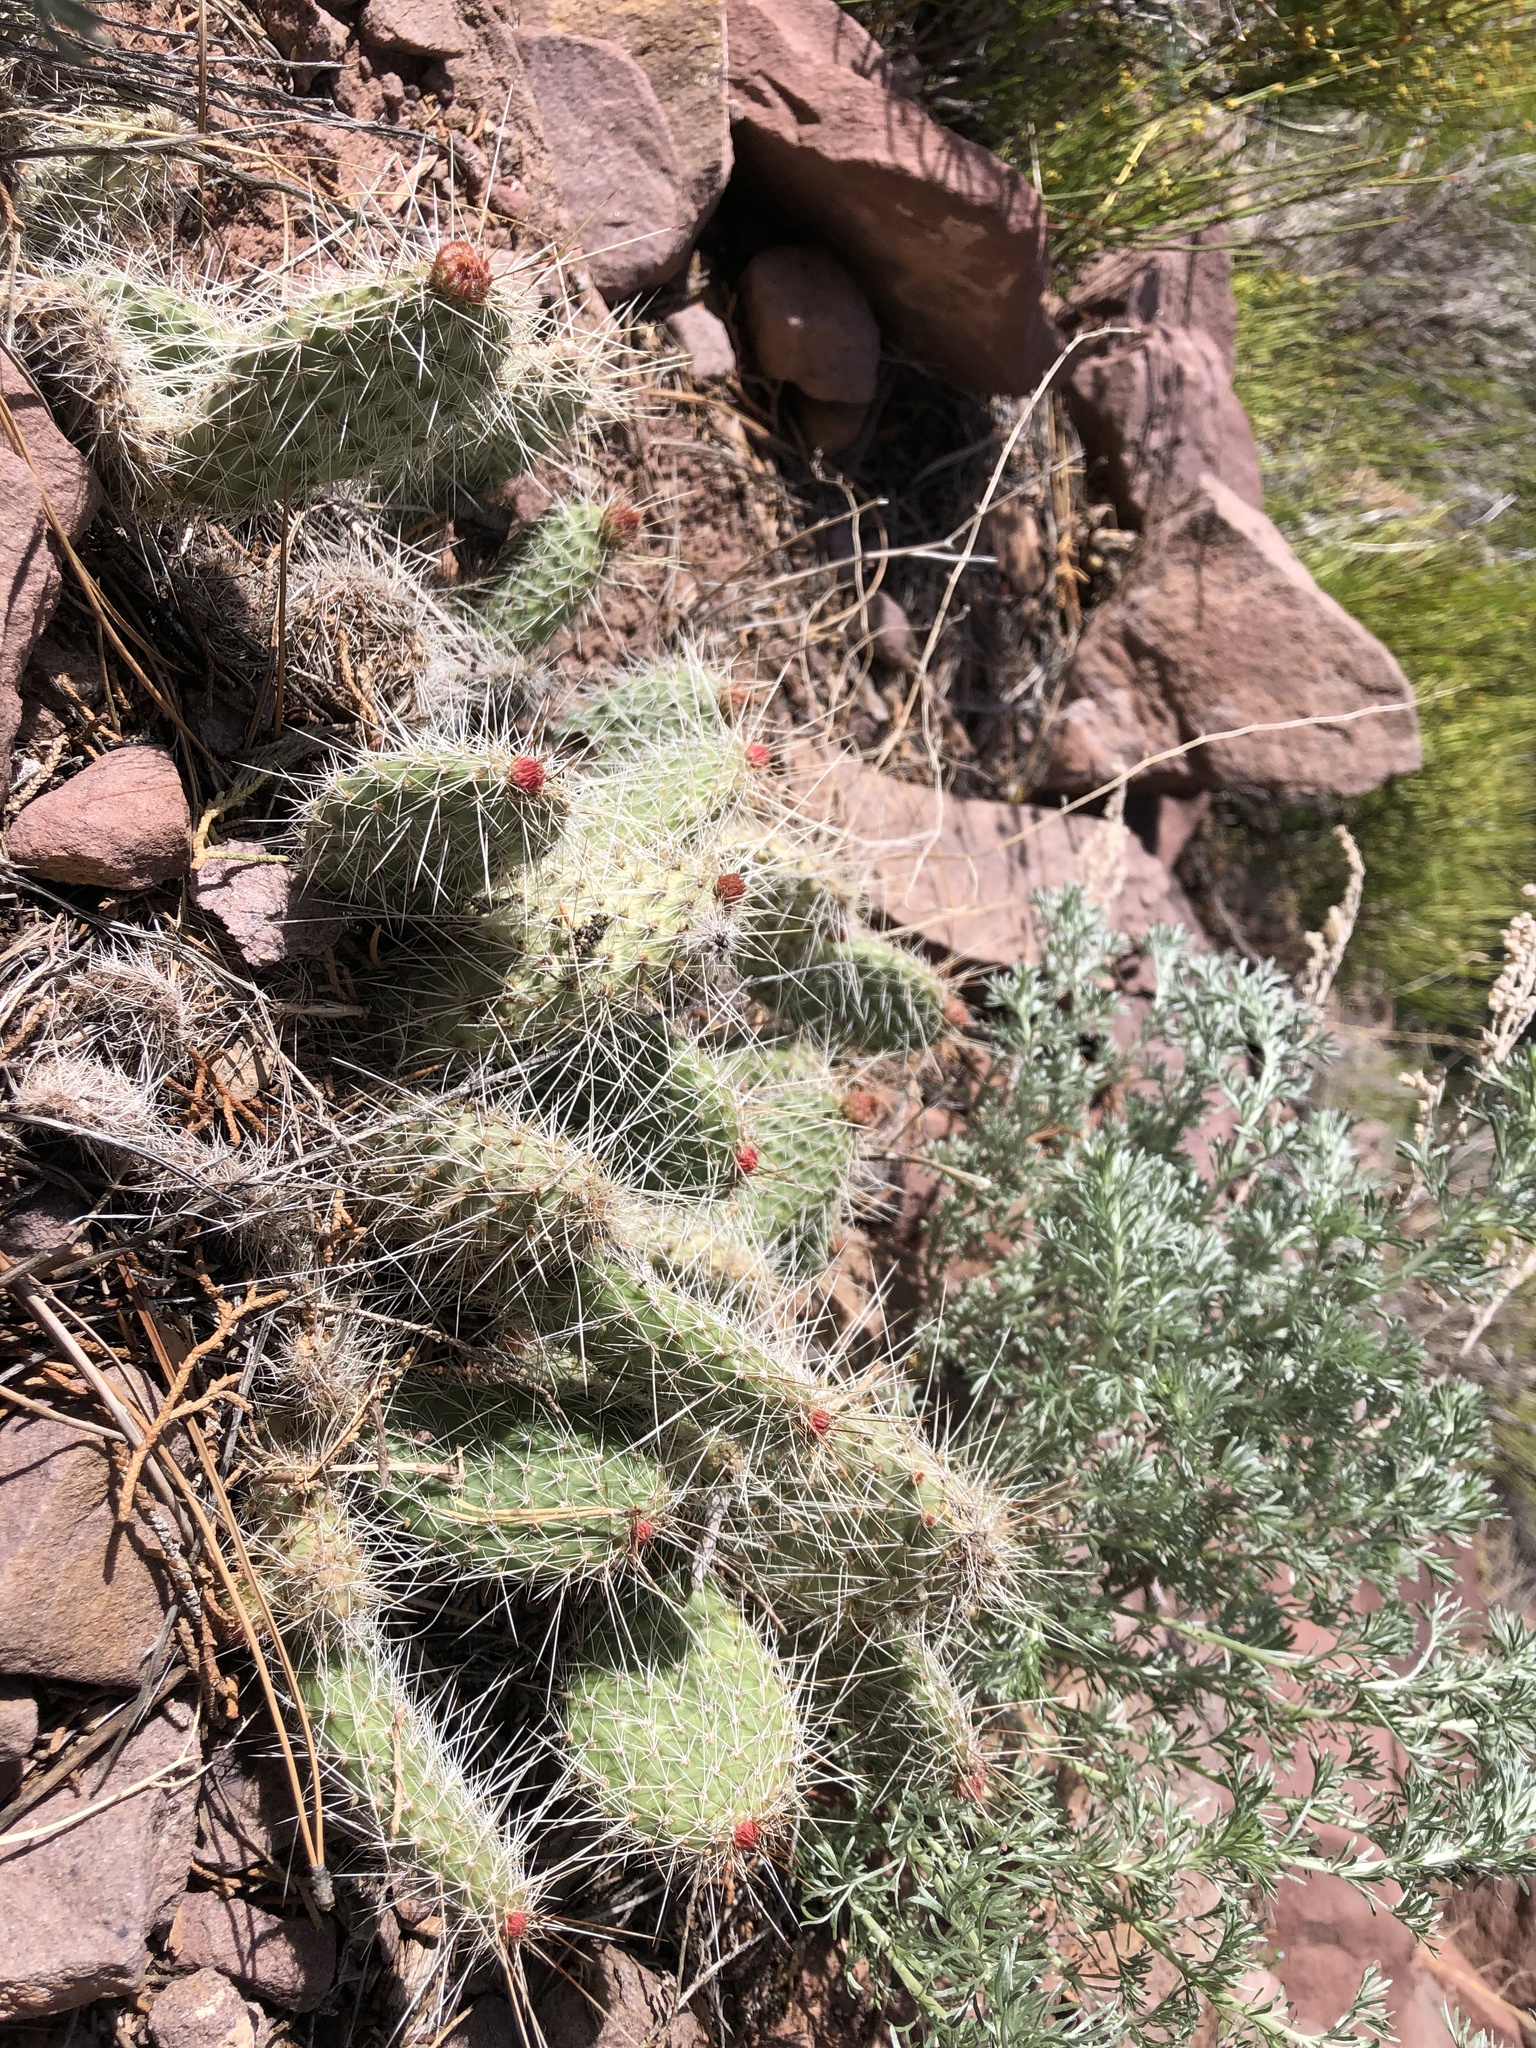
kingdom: Plantae
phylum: Tracheophyta
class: Magnoliopsida
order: Caryophyllales
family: Cactaceae
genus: Opuntia
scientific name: Opuntia polyacantha
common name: Plains prickly-pear
